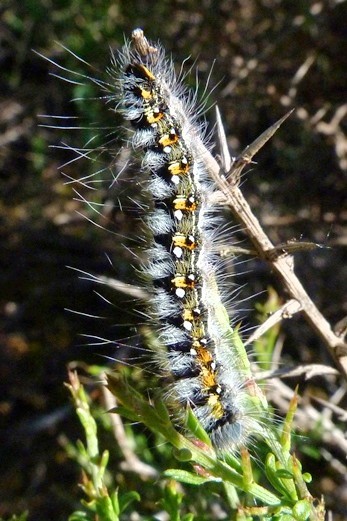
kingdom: Animalia
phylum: Arthropoda
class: Insecta
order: Lepidoptera
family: Lasiocampidae
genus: Psilogaster
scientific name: Psilogaster loti
